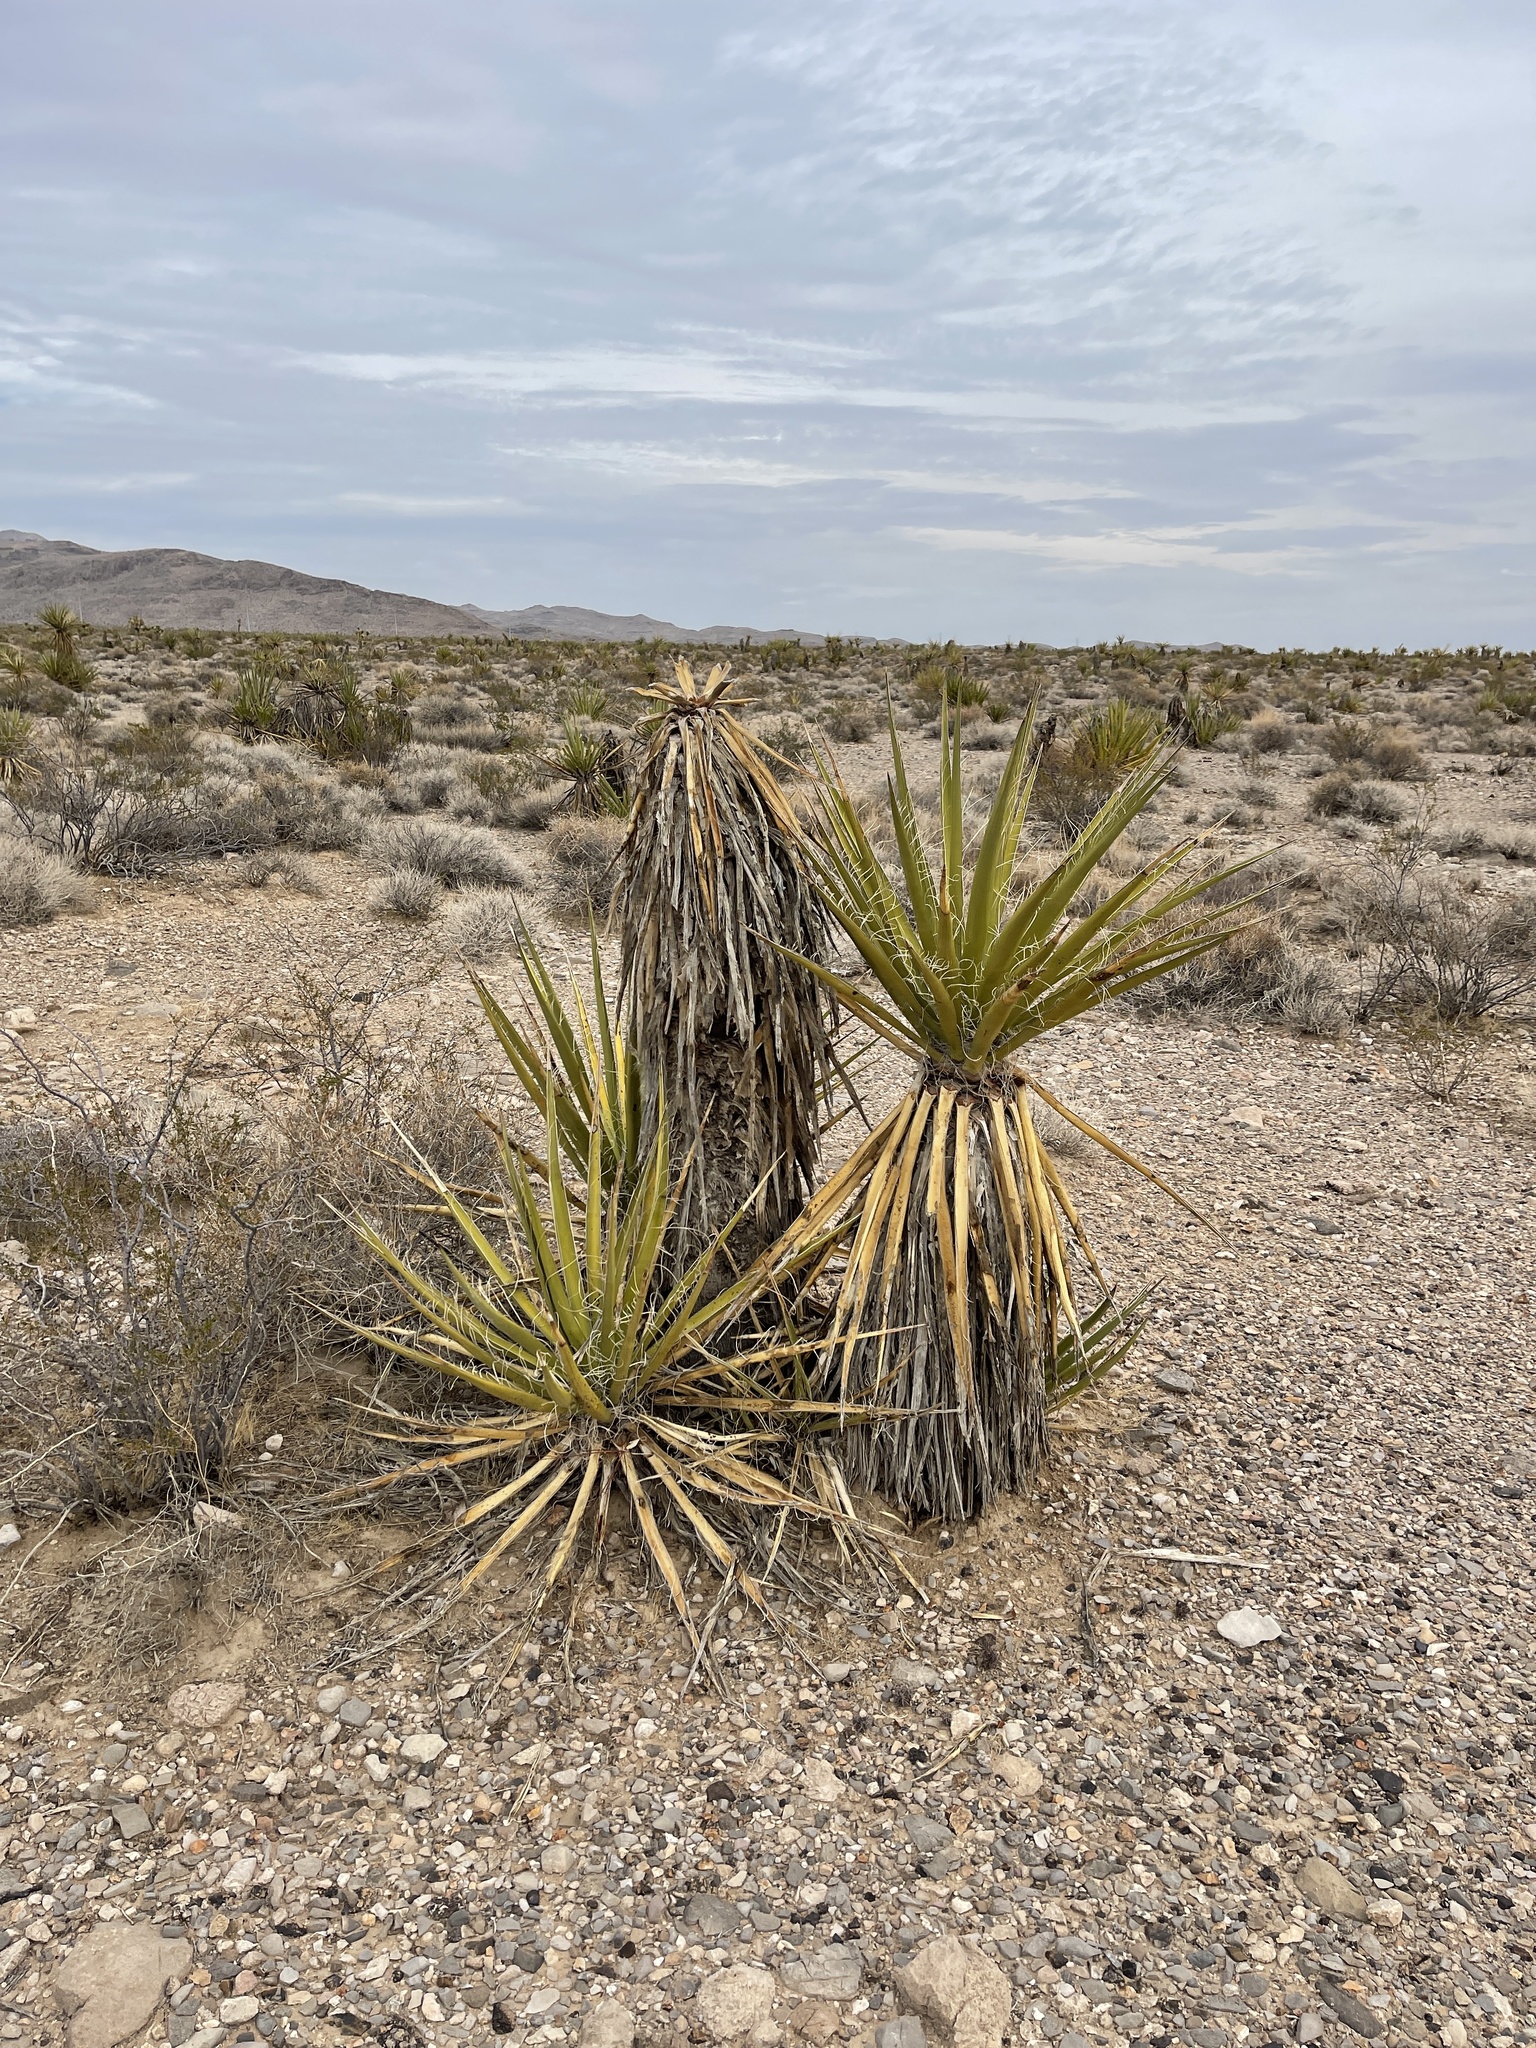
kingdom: Plantae
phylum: Tracheophyta
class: Liliopsida
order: Asparagales
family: Asparagaceae
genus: Yucca
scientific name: Yucca schidigera
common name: Mojave yucca
